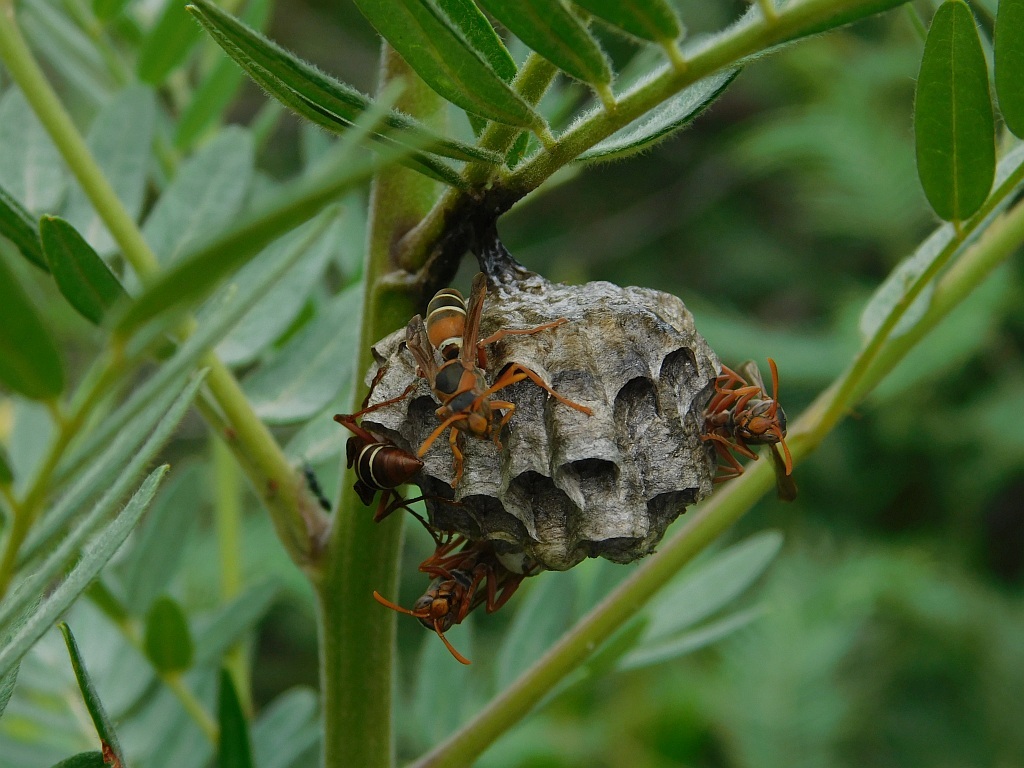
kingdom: Animalia
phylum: Arthropoda
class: Insecta
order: Hymenoptera
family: Eumenidae
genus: Polistes
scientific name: Polistes marginalis
